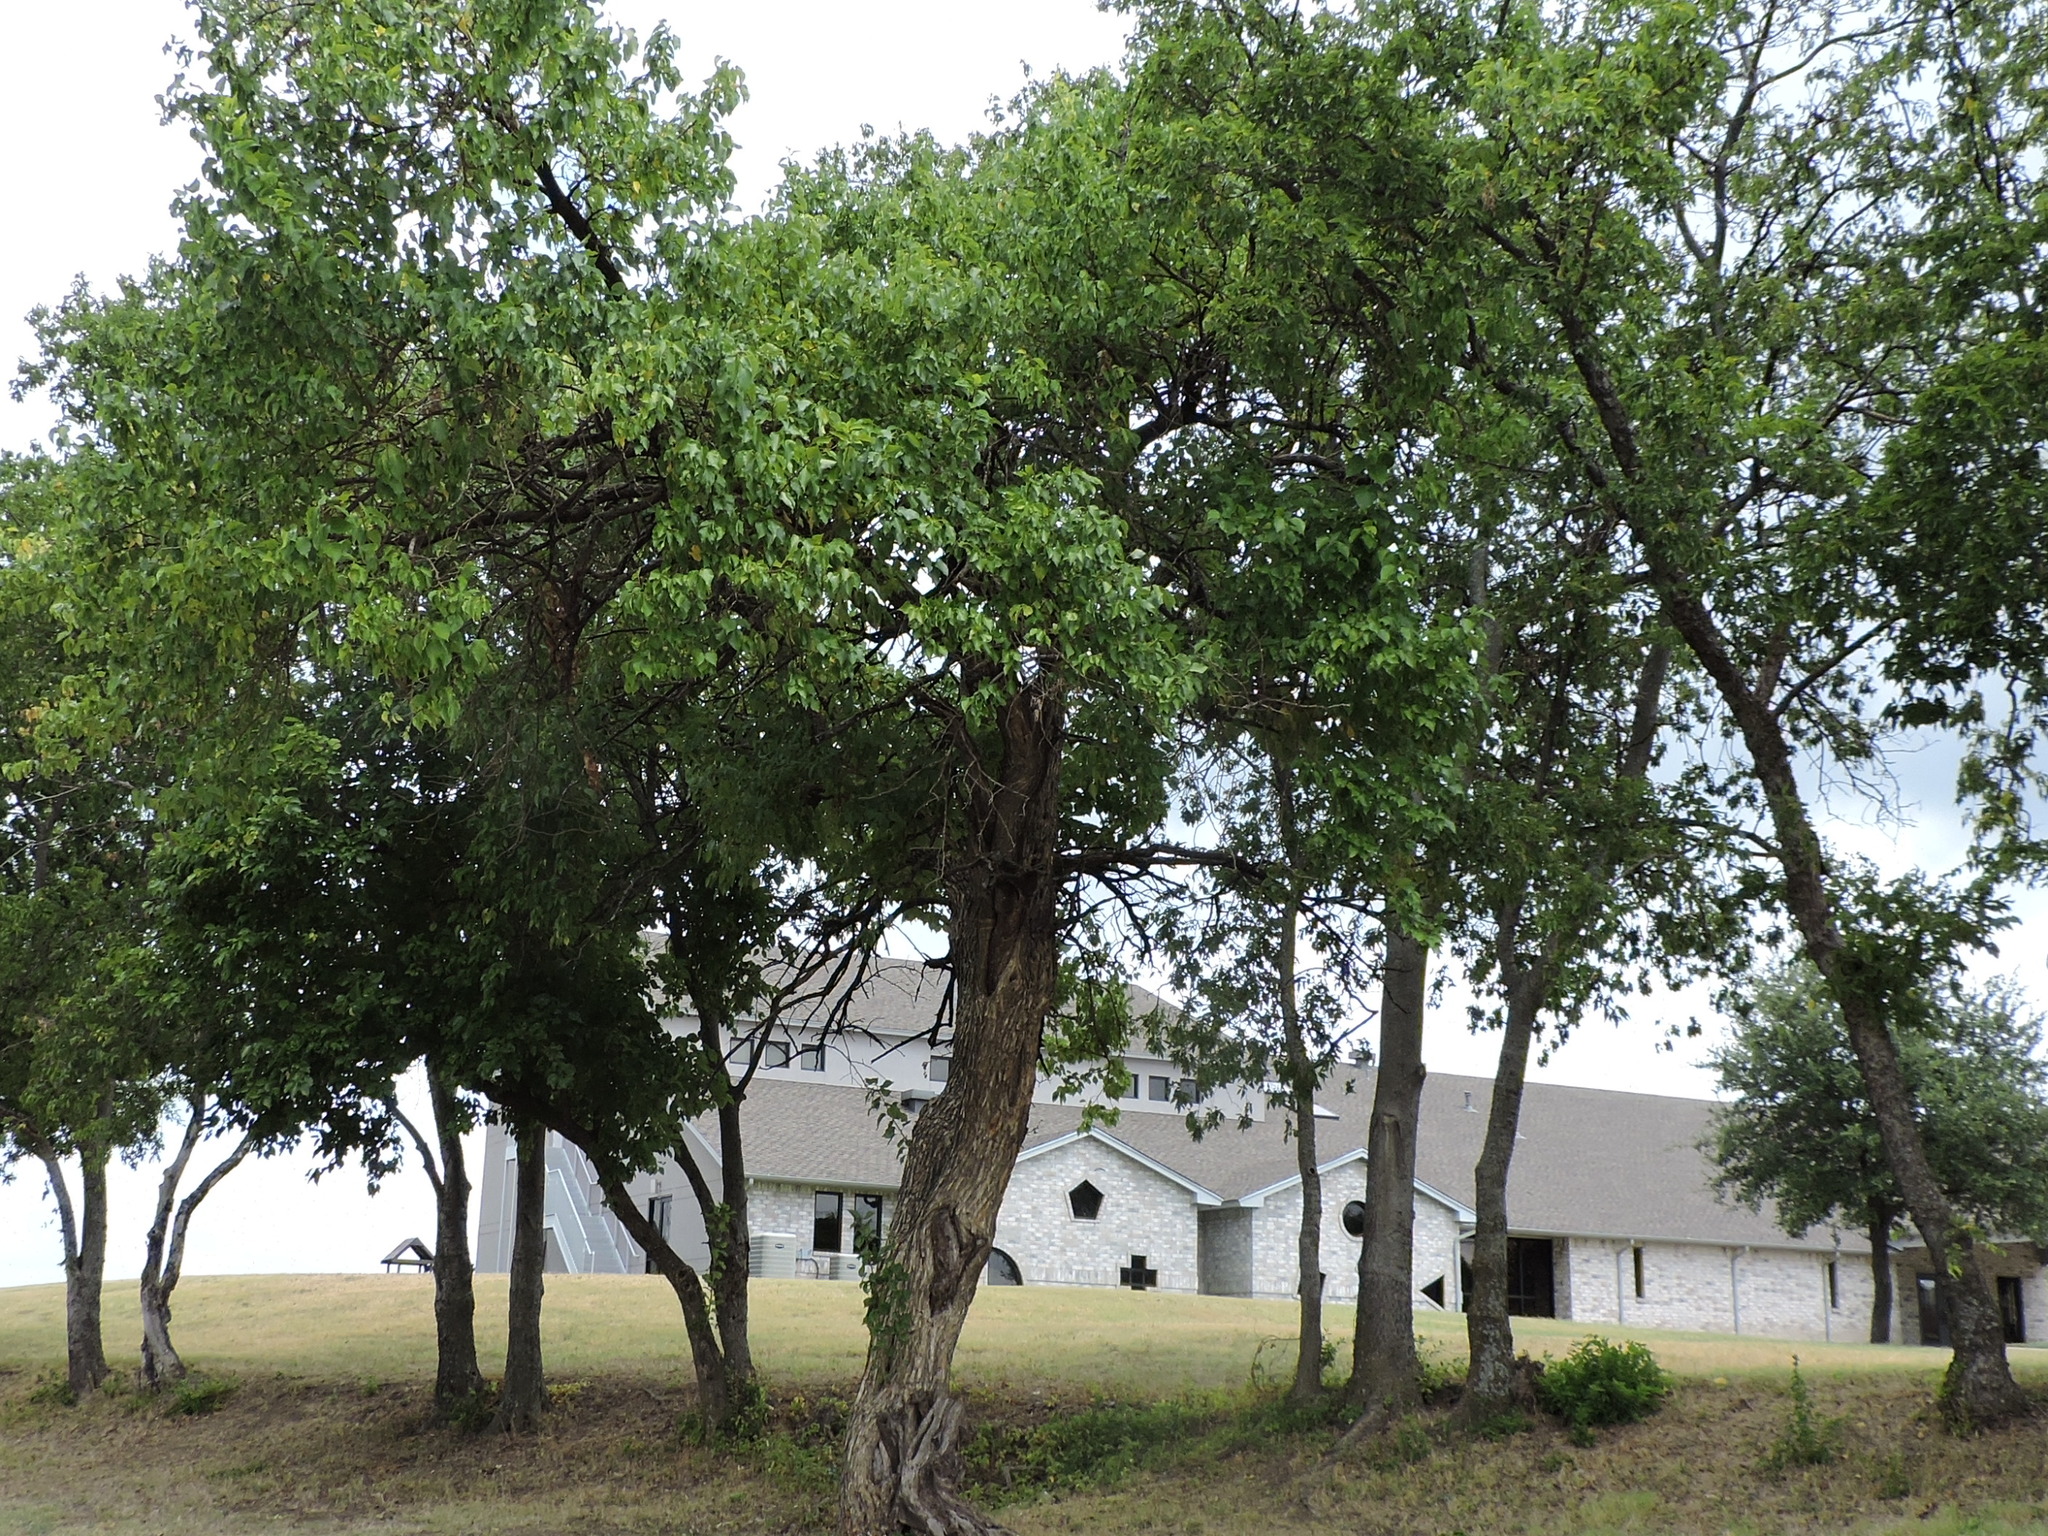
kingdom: Plantae
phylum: Tracheophyta
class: Magnoliopsida
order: Rosales
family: Moraceae
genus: Maclura
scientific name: Maclura pomifera
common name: Osage-orange
